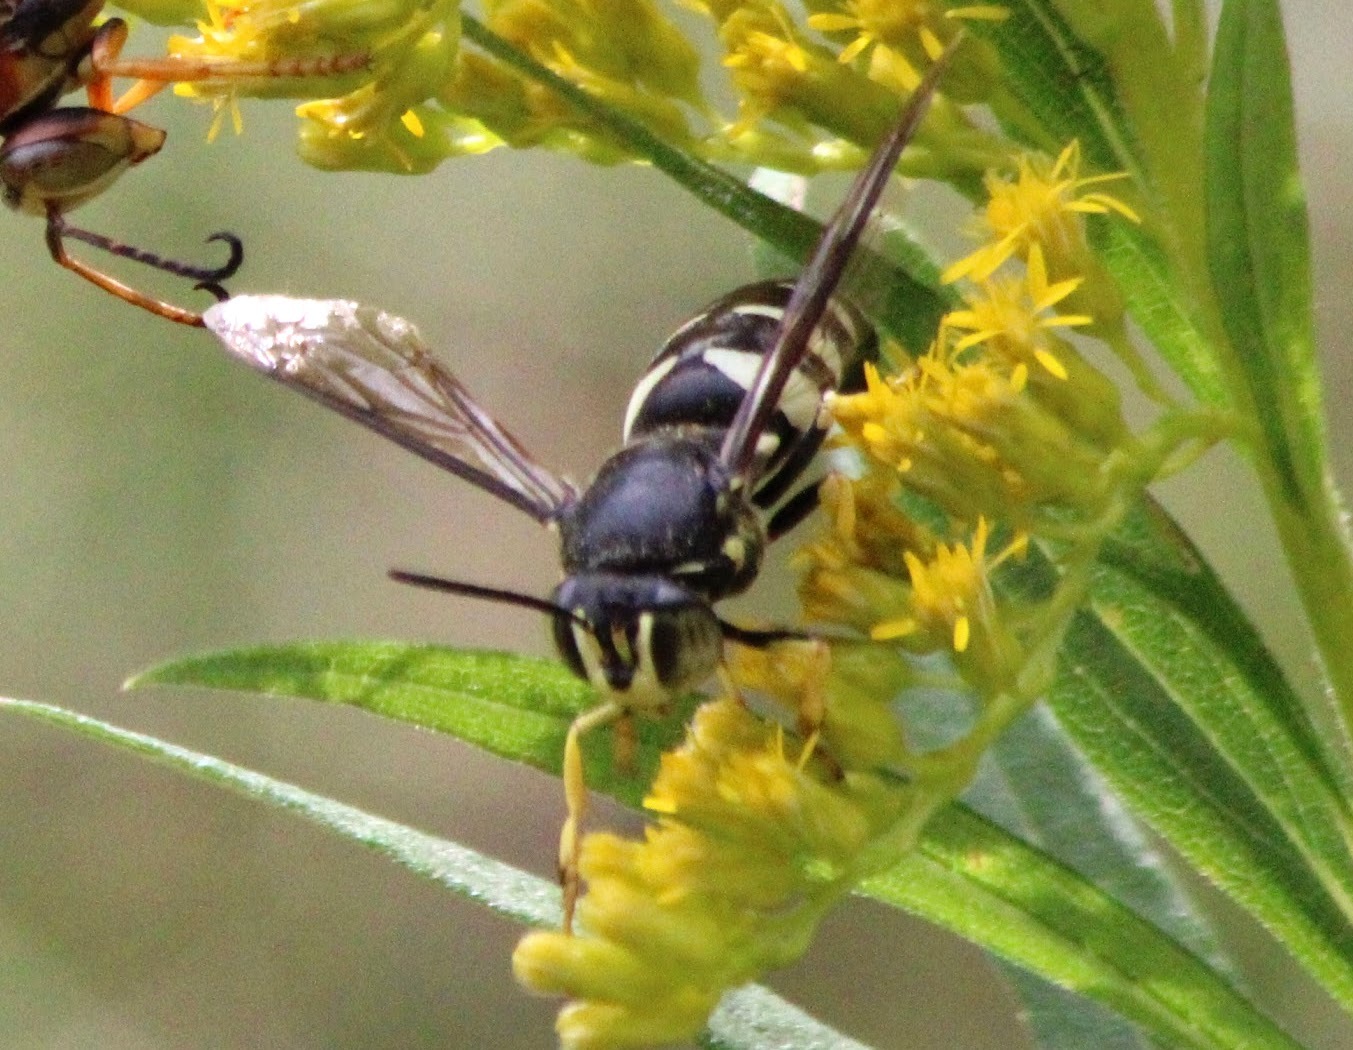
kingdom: Animalia
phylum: Arthropoda
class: Insecta
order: Hymenoptera
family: Crabronidae
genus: Bicyrtes
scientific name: Bicyrtes quadrifasciatus
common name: Four-banded stink bug hunter wasp
